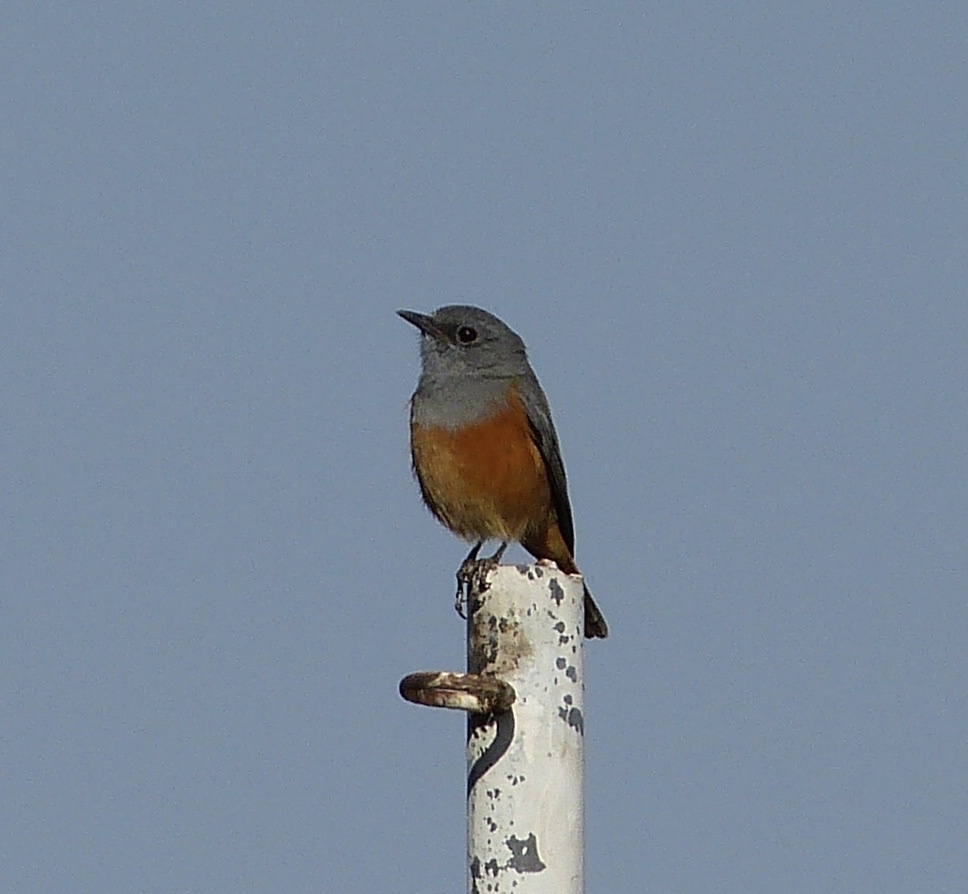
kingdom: Animalia
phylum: Chordata
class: Aves
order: Passeriformes
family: Muscicapidae
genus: Monticola
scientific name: Monticola sharpei
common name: Forest rock-thrush
